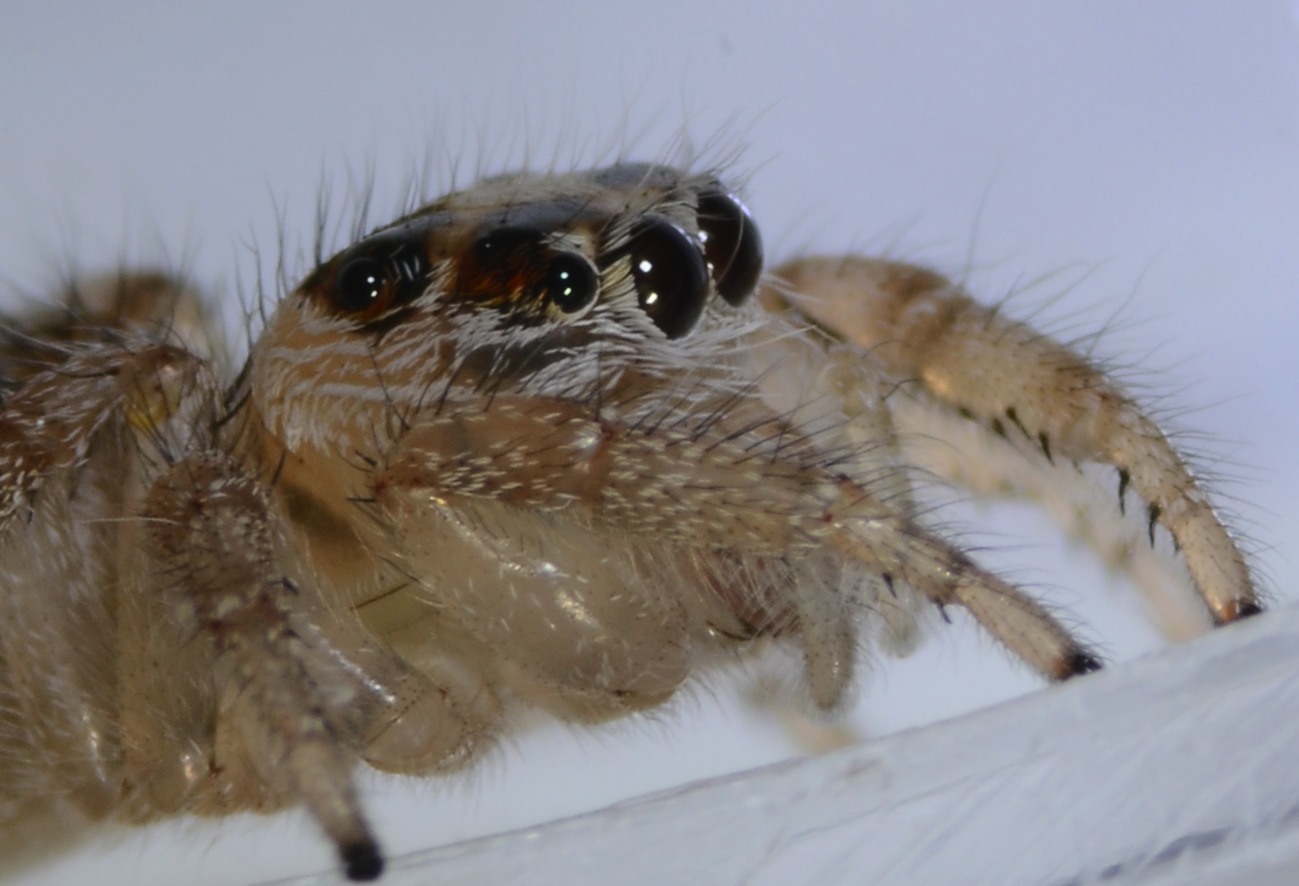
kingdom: Animalia
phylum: Arthropoda
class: Arachnida
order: Araneae
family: Salticidae
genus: Colonus
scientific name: Colonus hesperus
